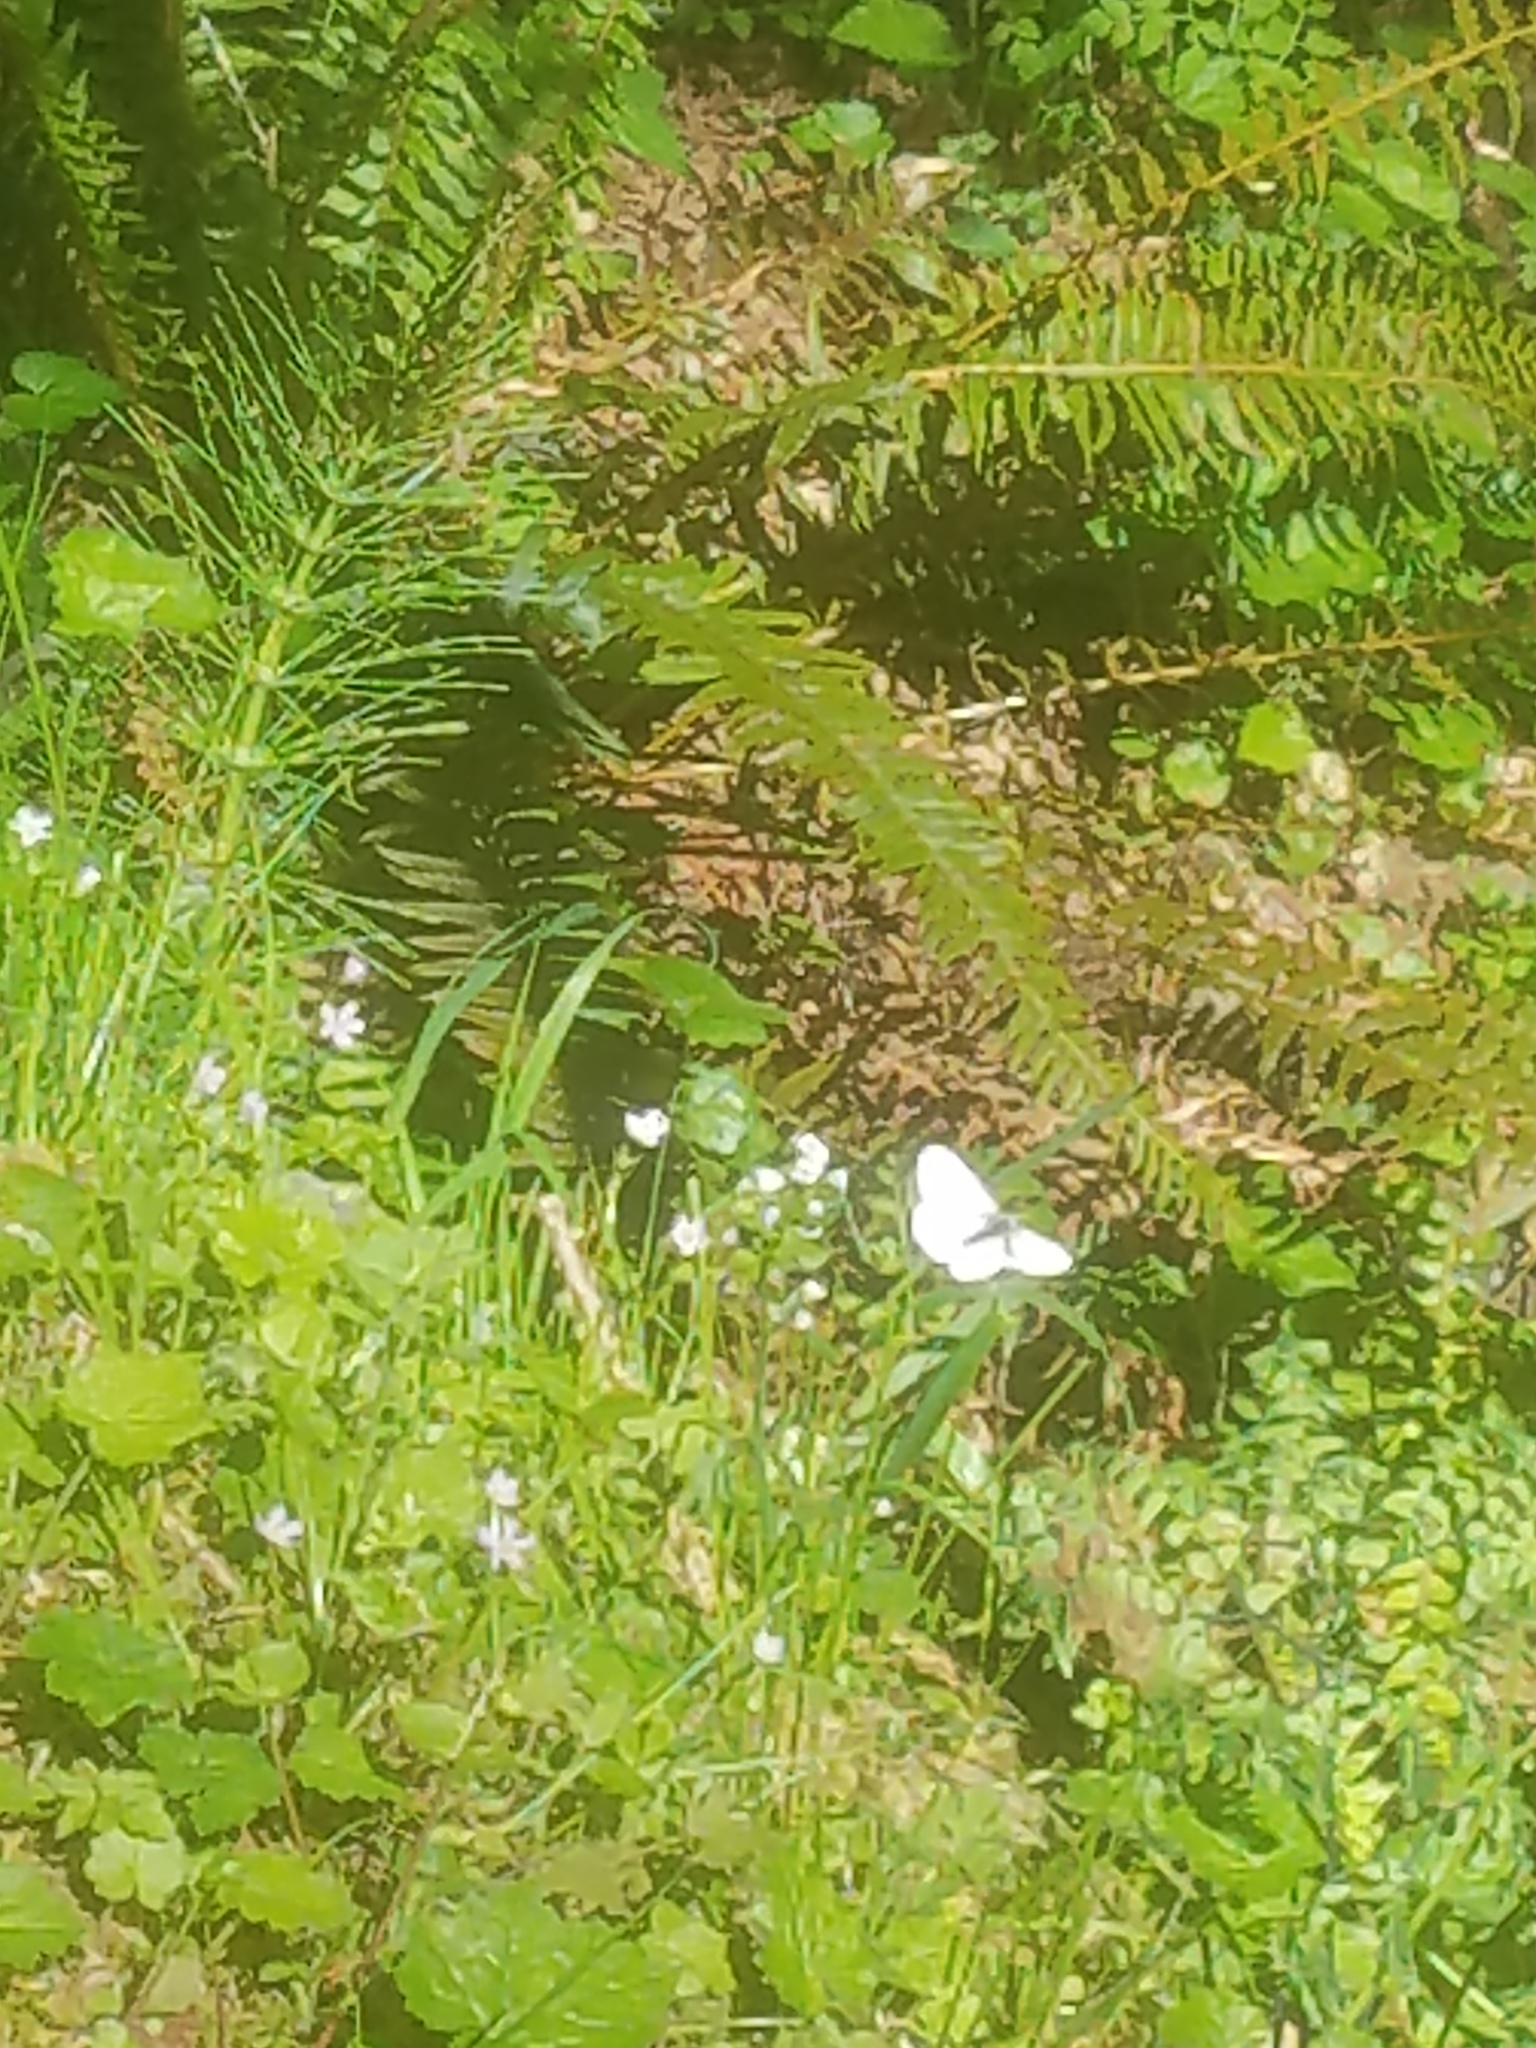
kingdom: Animalia
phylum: Arthropoda
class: Insecta
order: Lepidoptera
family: Pieridae
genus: Pieris
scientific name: Pieris marginalis
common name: Margined white
